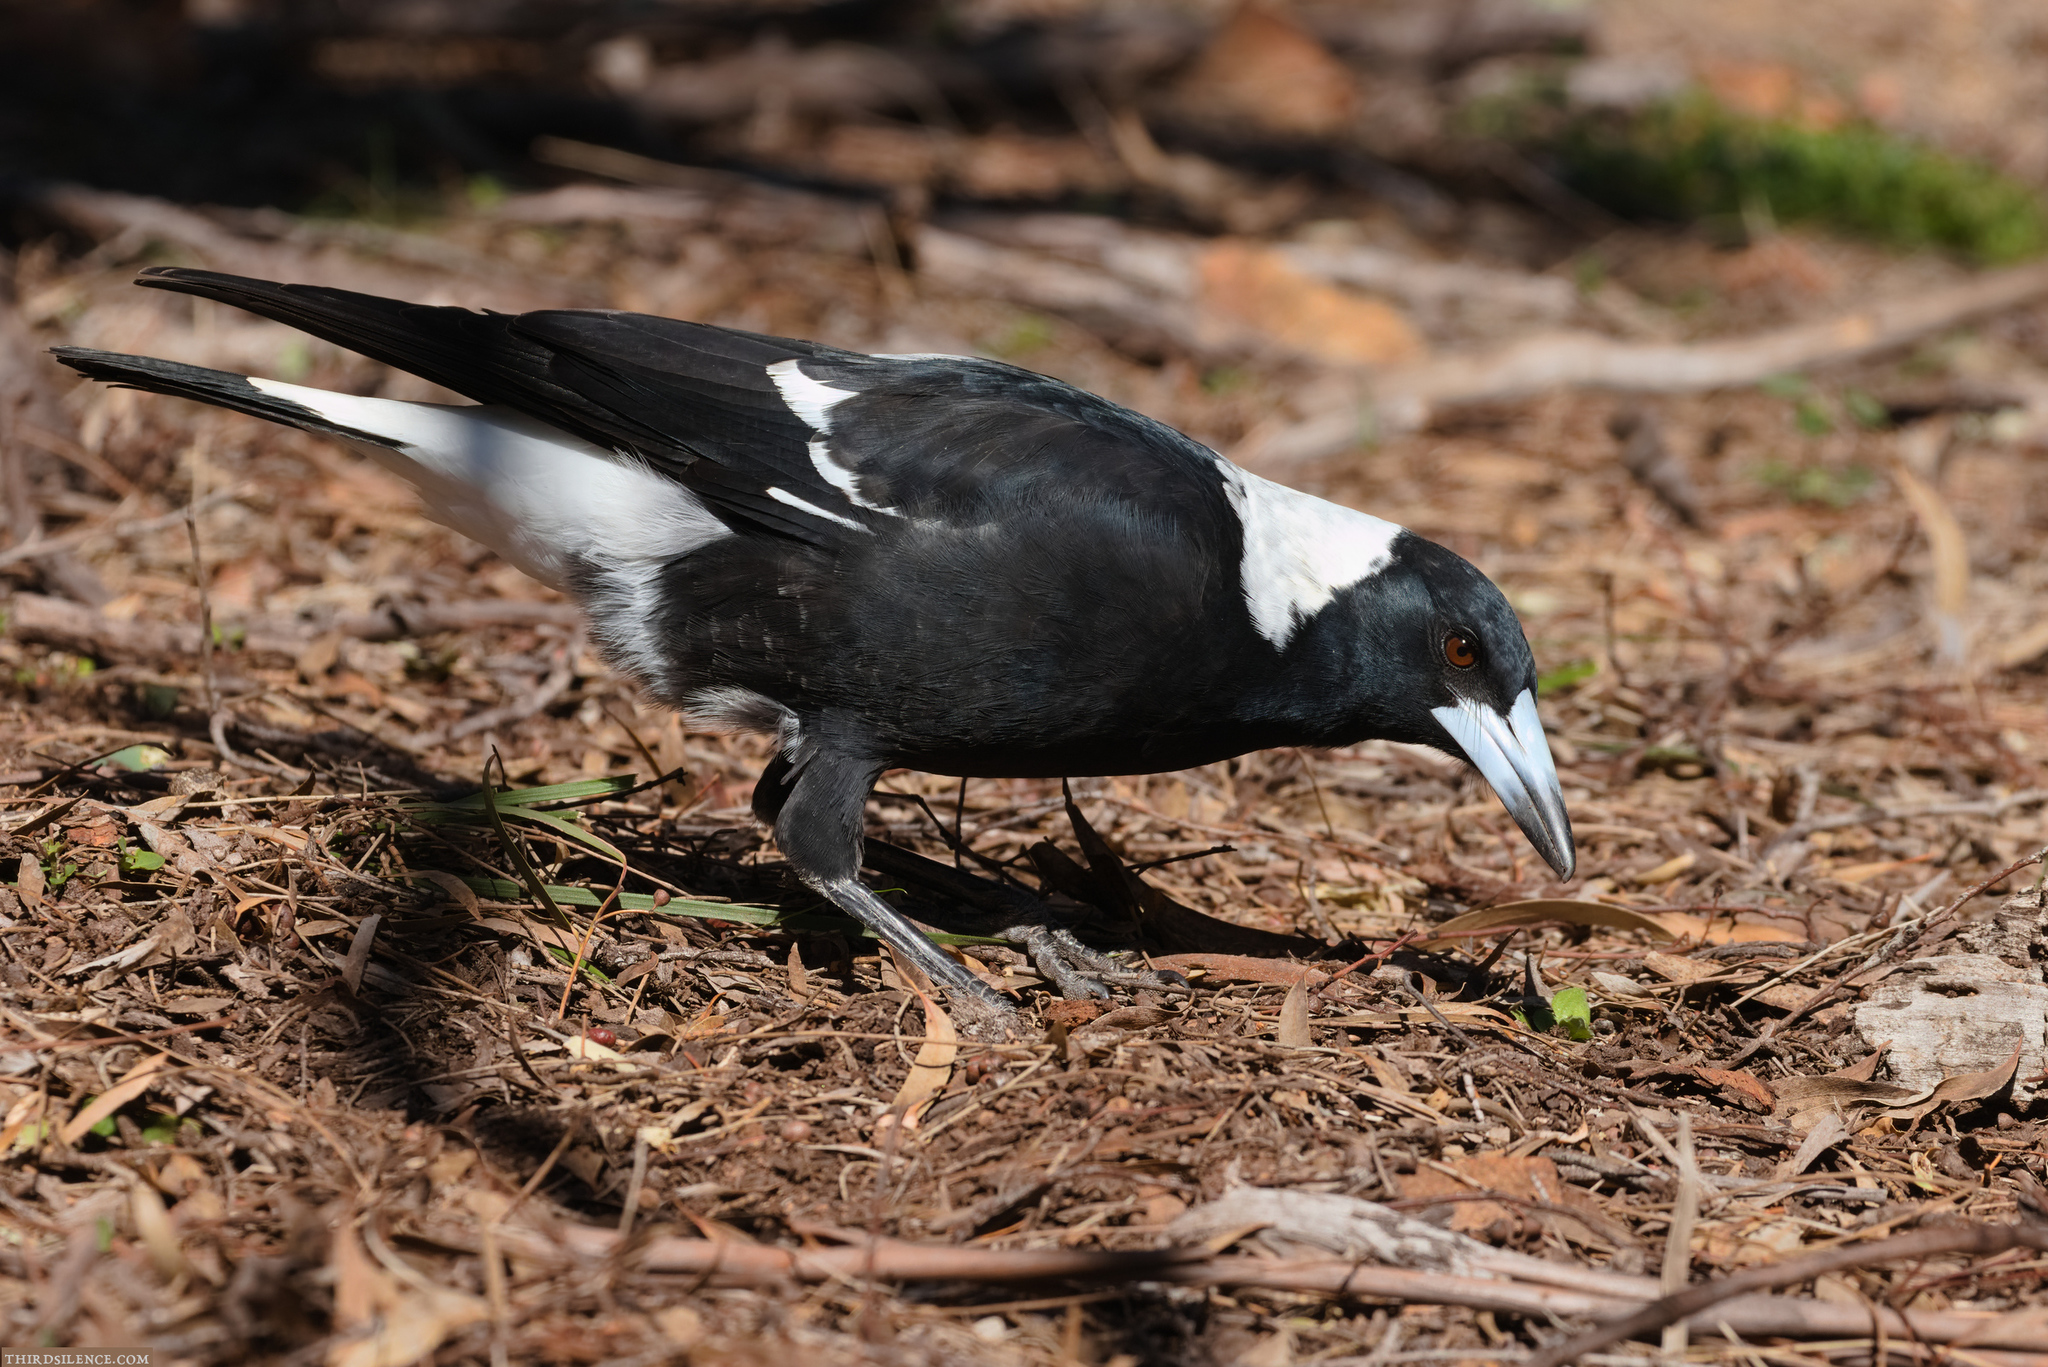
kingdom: Animalia
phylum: Chordata
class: Aves
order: Passeriformes
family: Cracticidae
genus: Gymnorhina
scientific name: Gymnorhina tibicen
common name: Australian magpie
